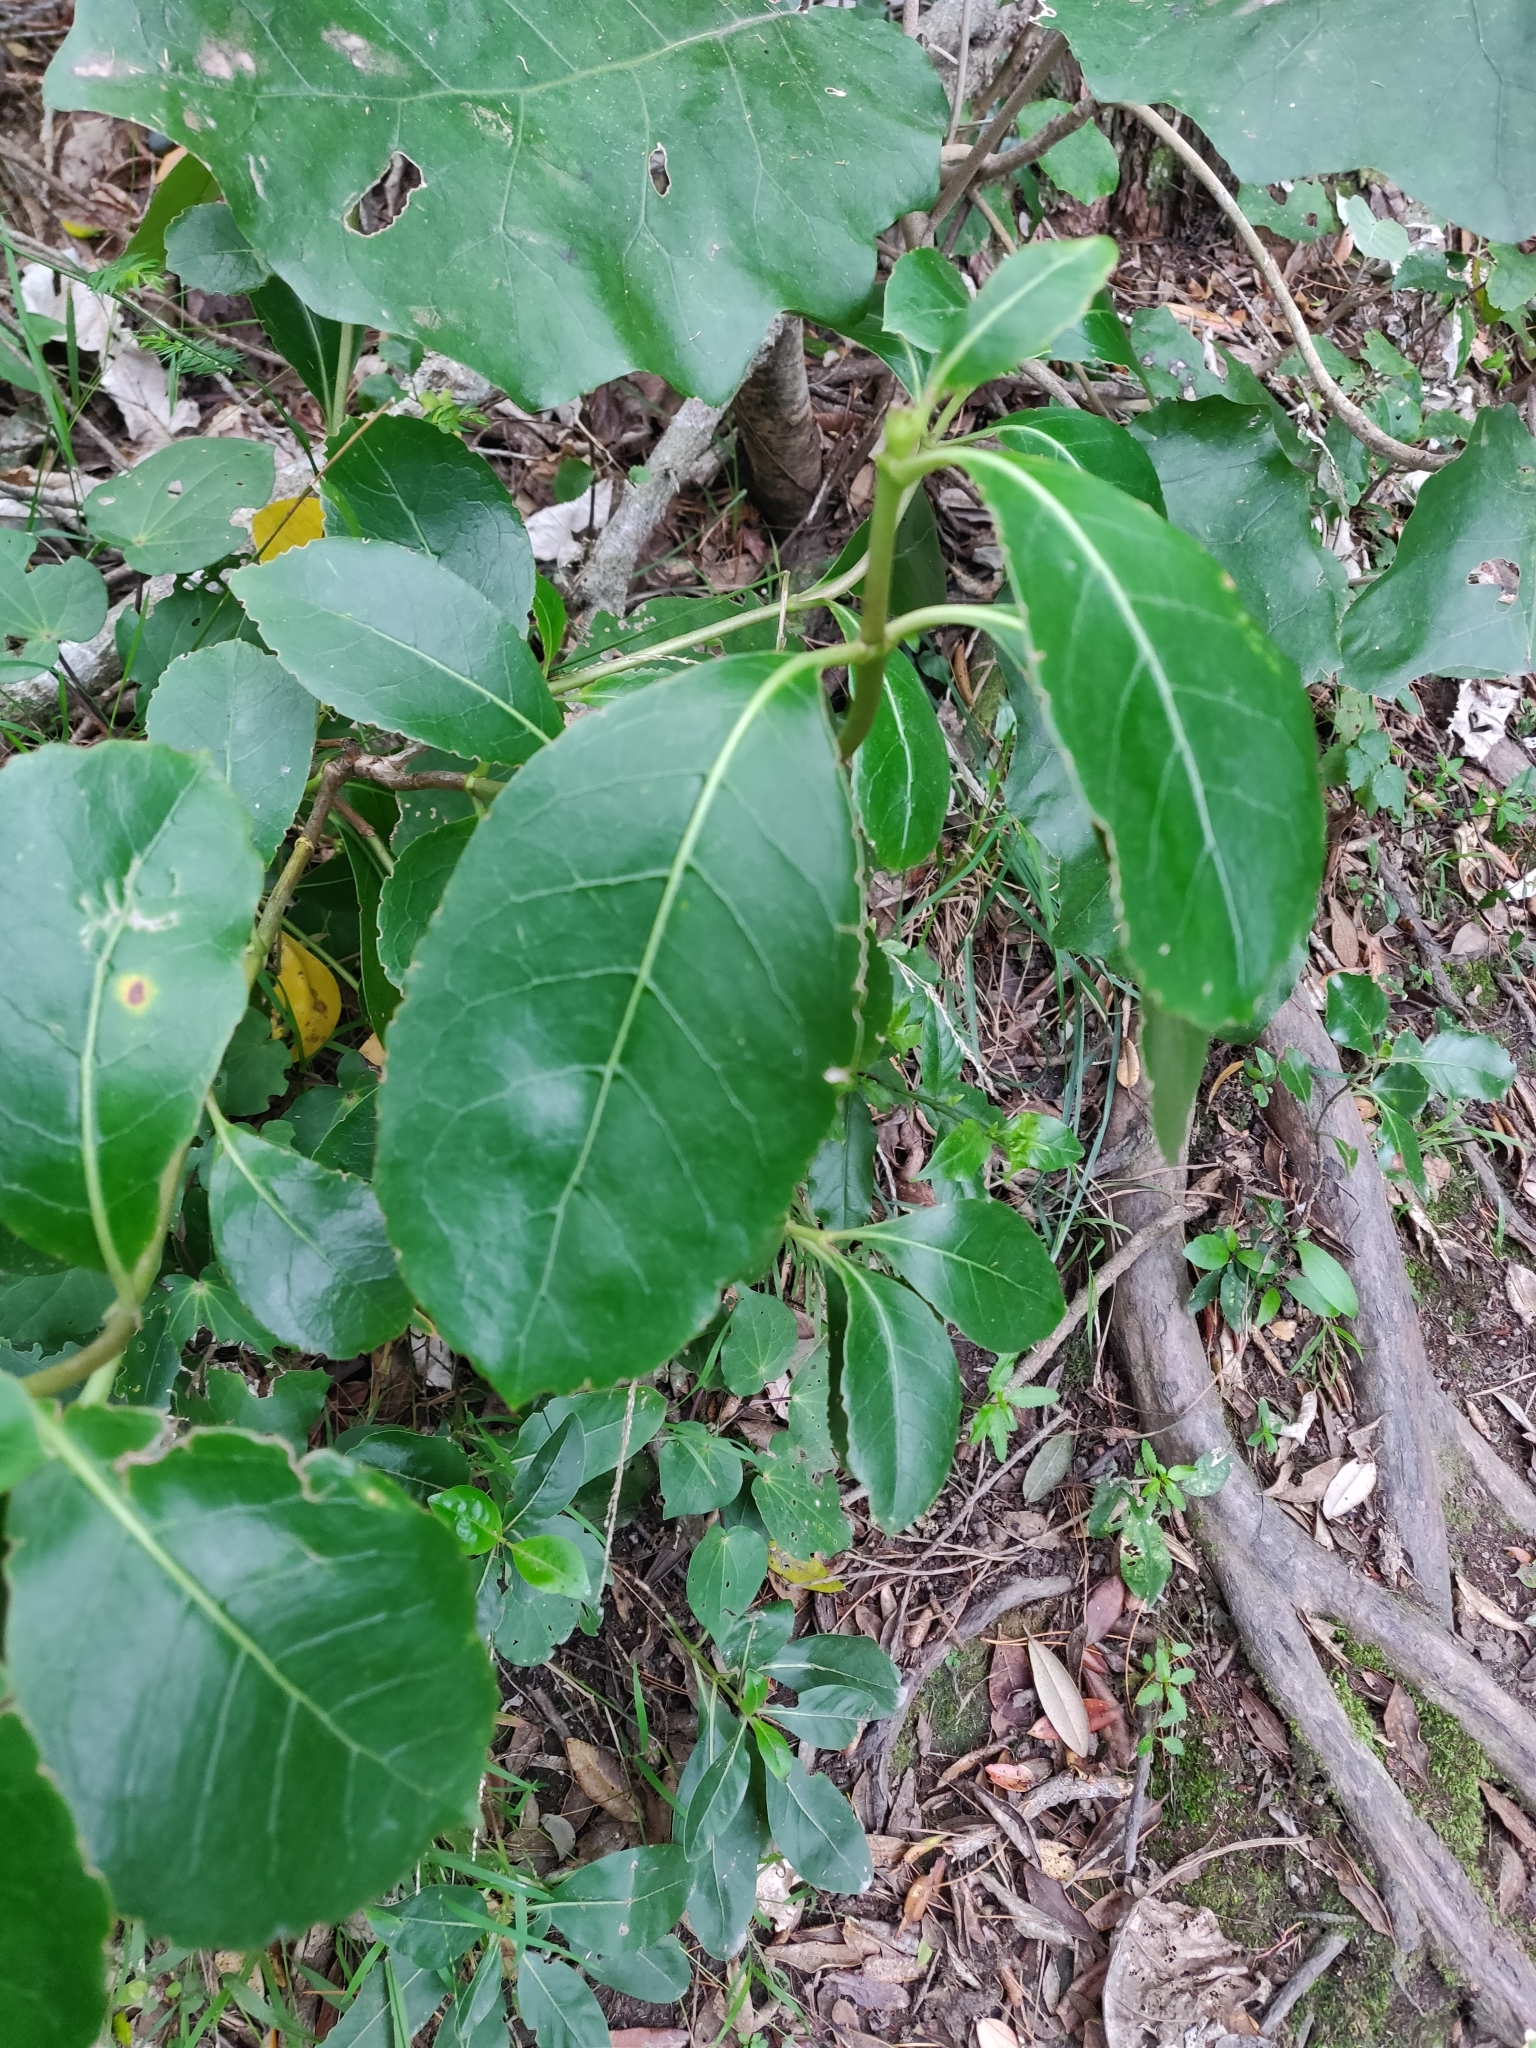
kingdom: Plantae
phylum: Tracheophyta
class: Magnoliopsida
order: Gentianales
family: Rubiaceae
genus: Coprosma
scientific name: Coprosma lucida
